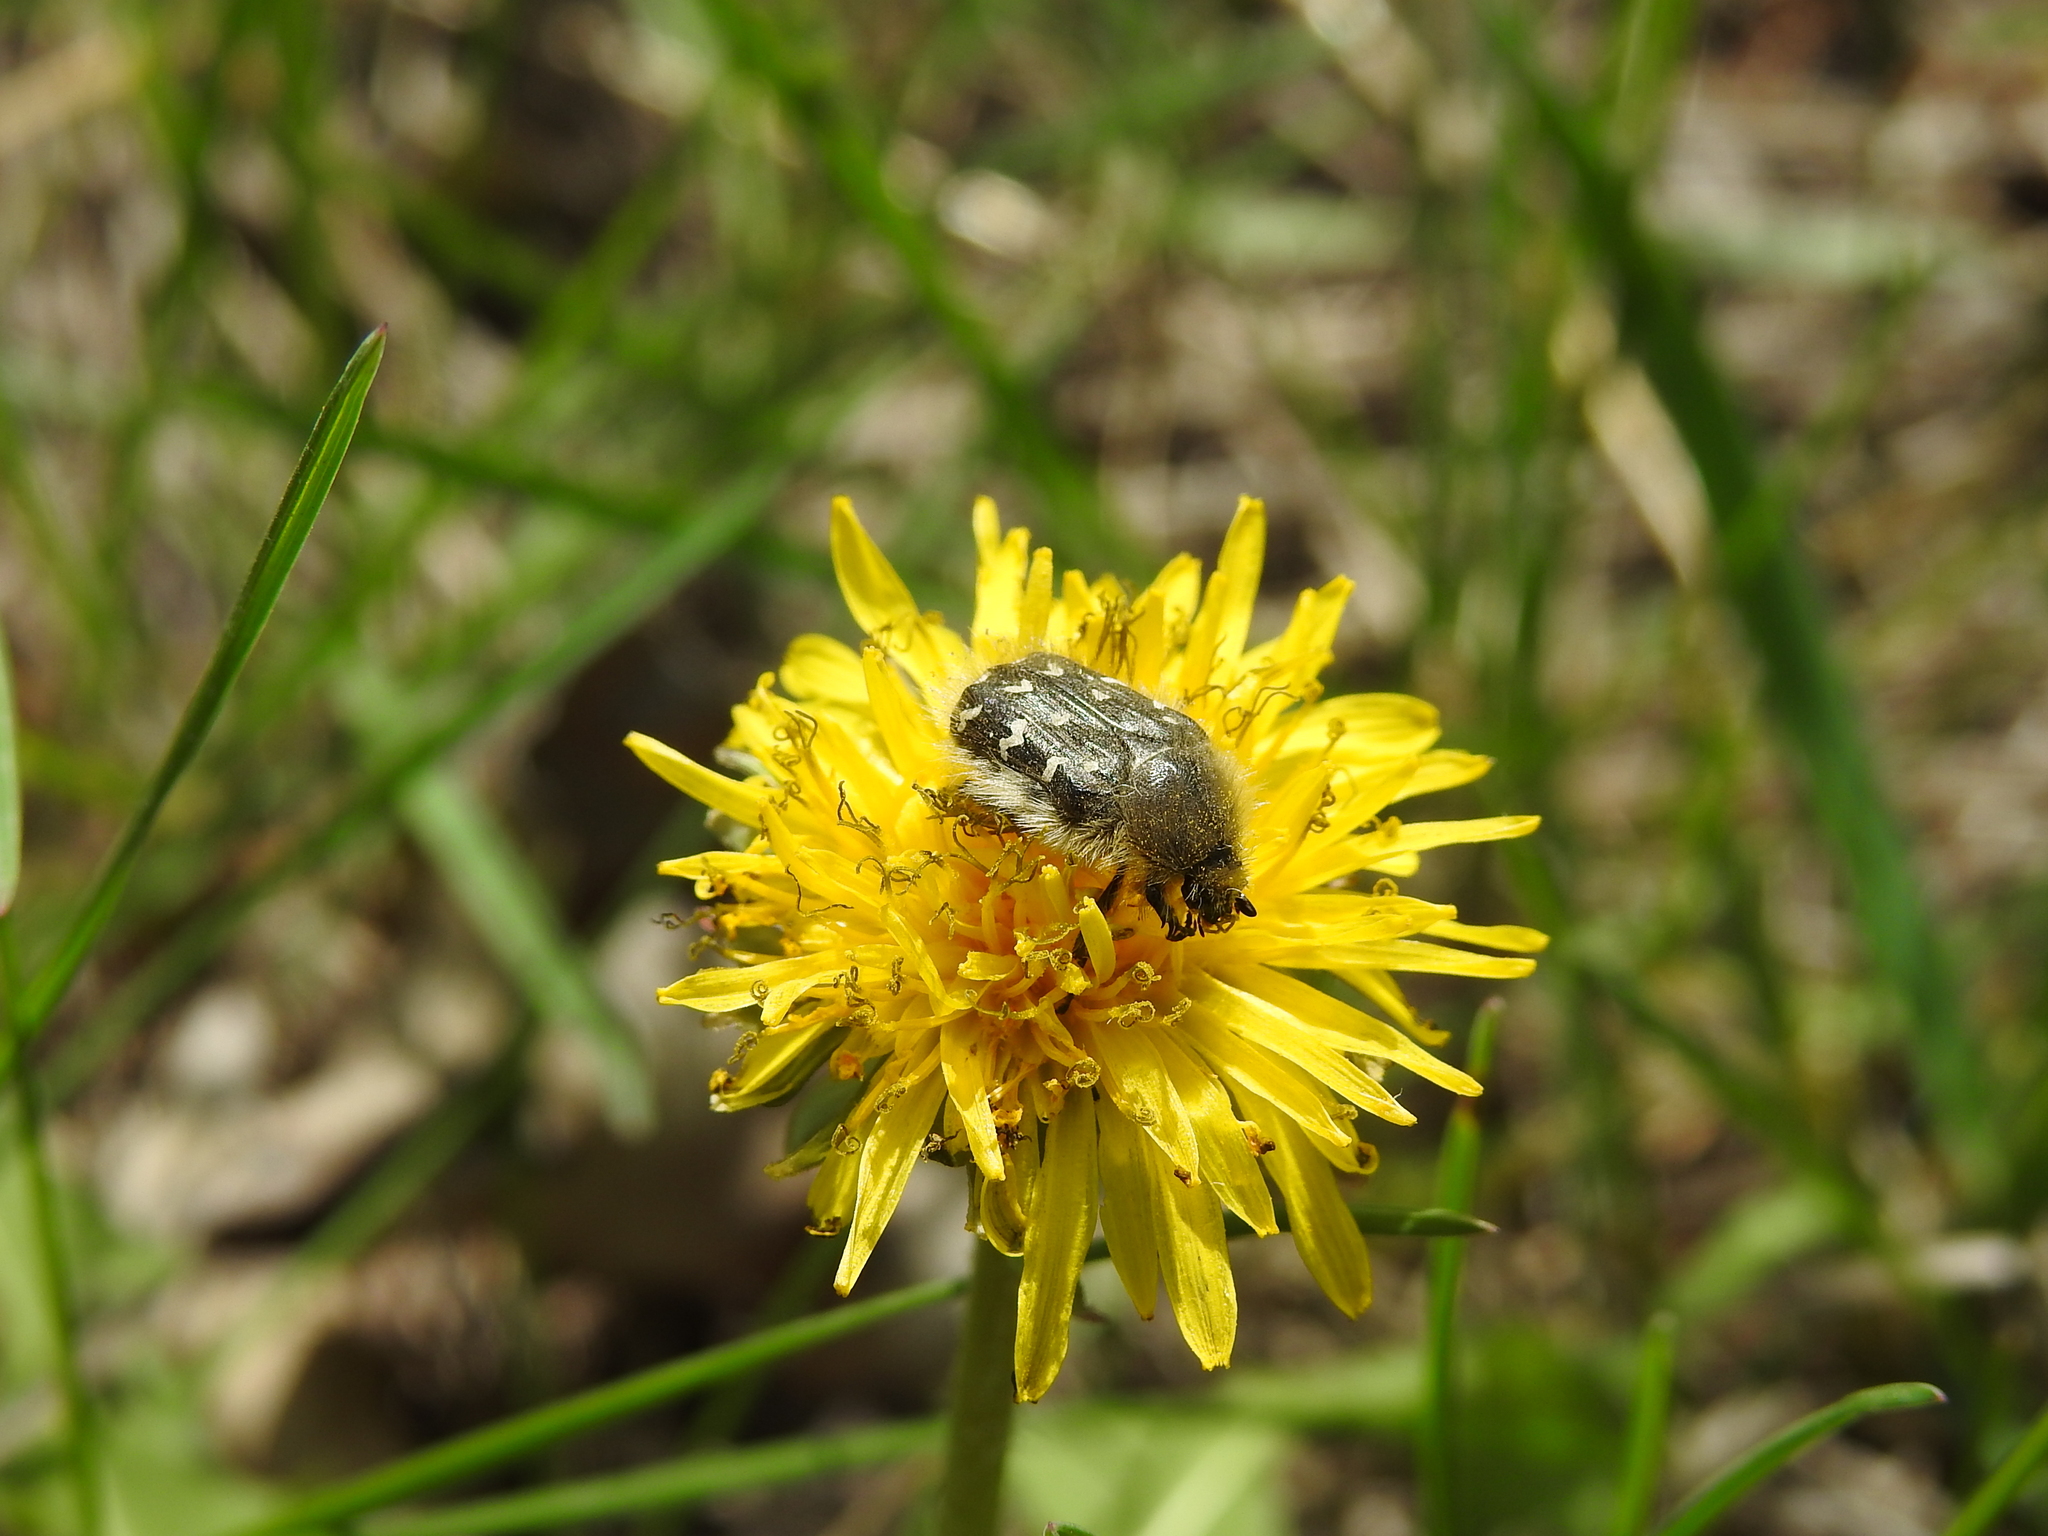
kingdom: Animalia
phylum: Arthropoda
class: Insecta
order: Coleoptera
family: Scarabaeidae
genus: Tropinota
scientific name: Tropinota hirta
